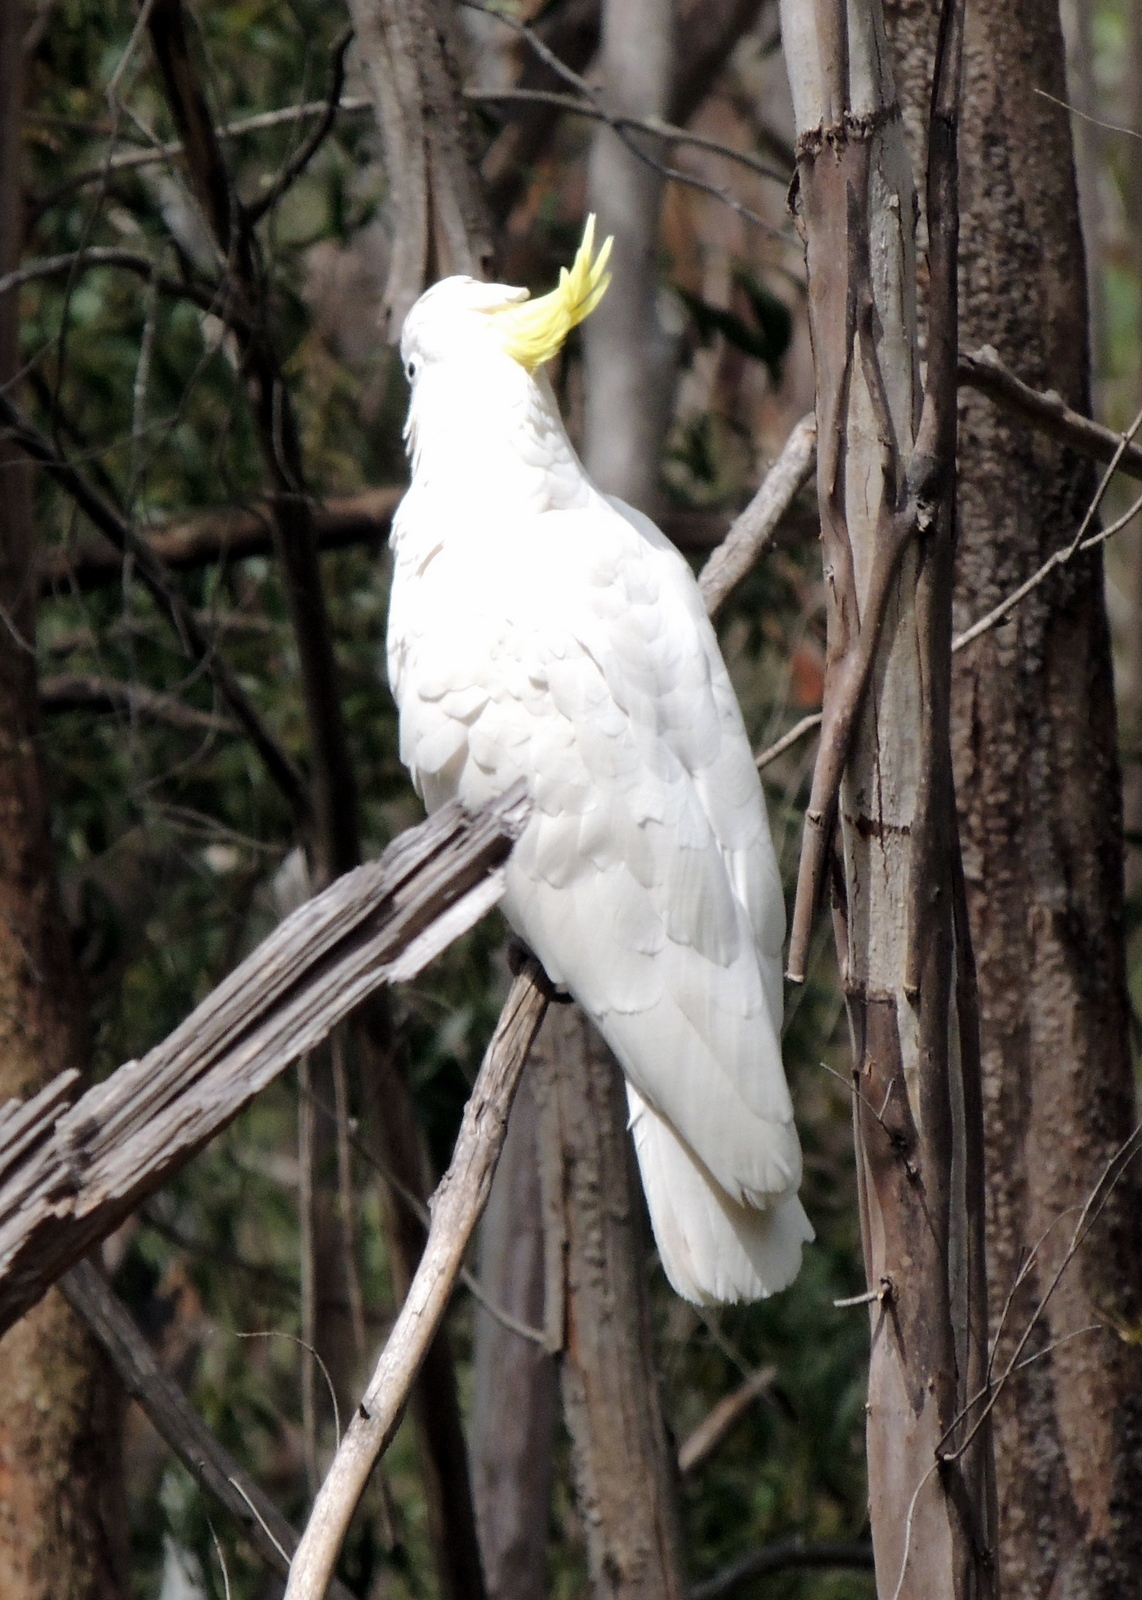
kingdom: Animalia
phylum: Chordata
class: Aves
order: Psittaciformes
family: Psittacidae
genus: Cacatua
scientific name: Cacatua galerita
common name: Sulphur-crested cockatoo
